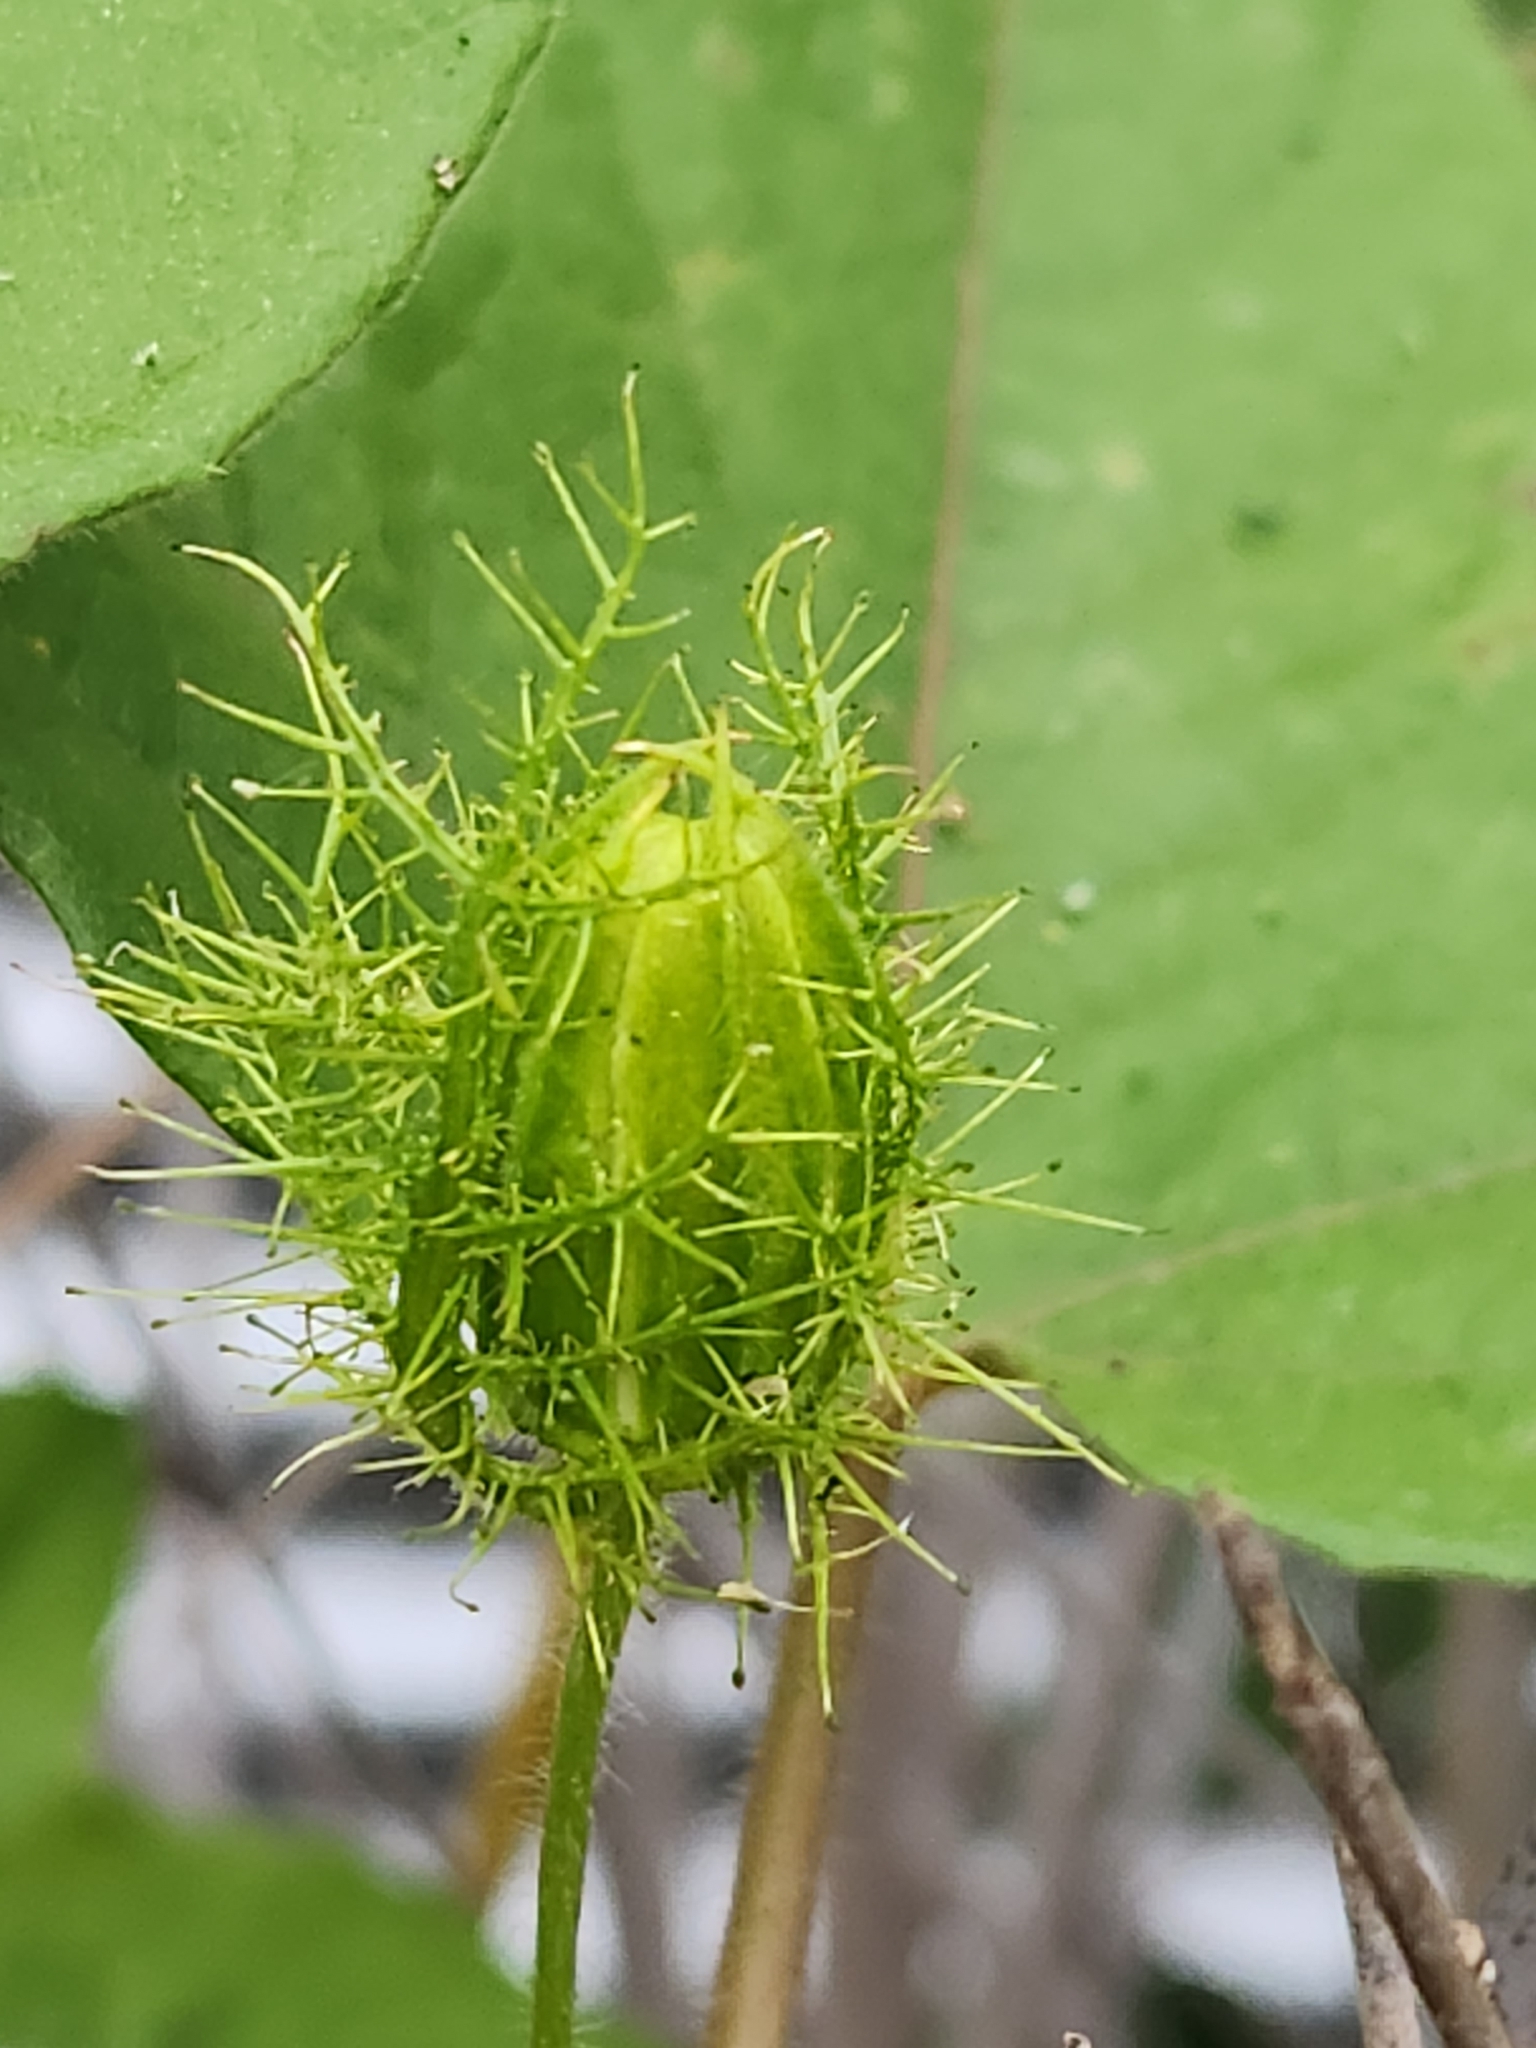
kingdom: Plantae
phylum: Tracheophyta
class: Magnoliopsida
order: Malpighiales
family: Passifloraceae
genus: Passiflora
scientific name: Passiflora
